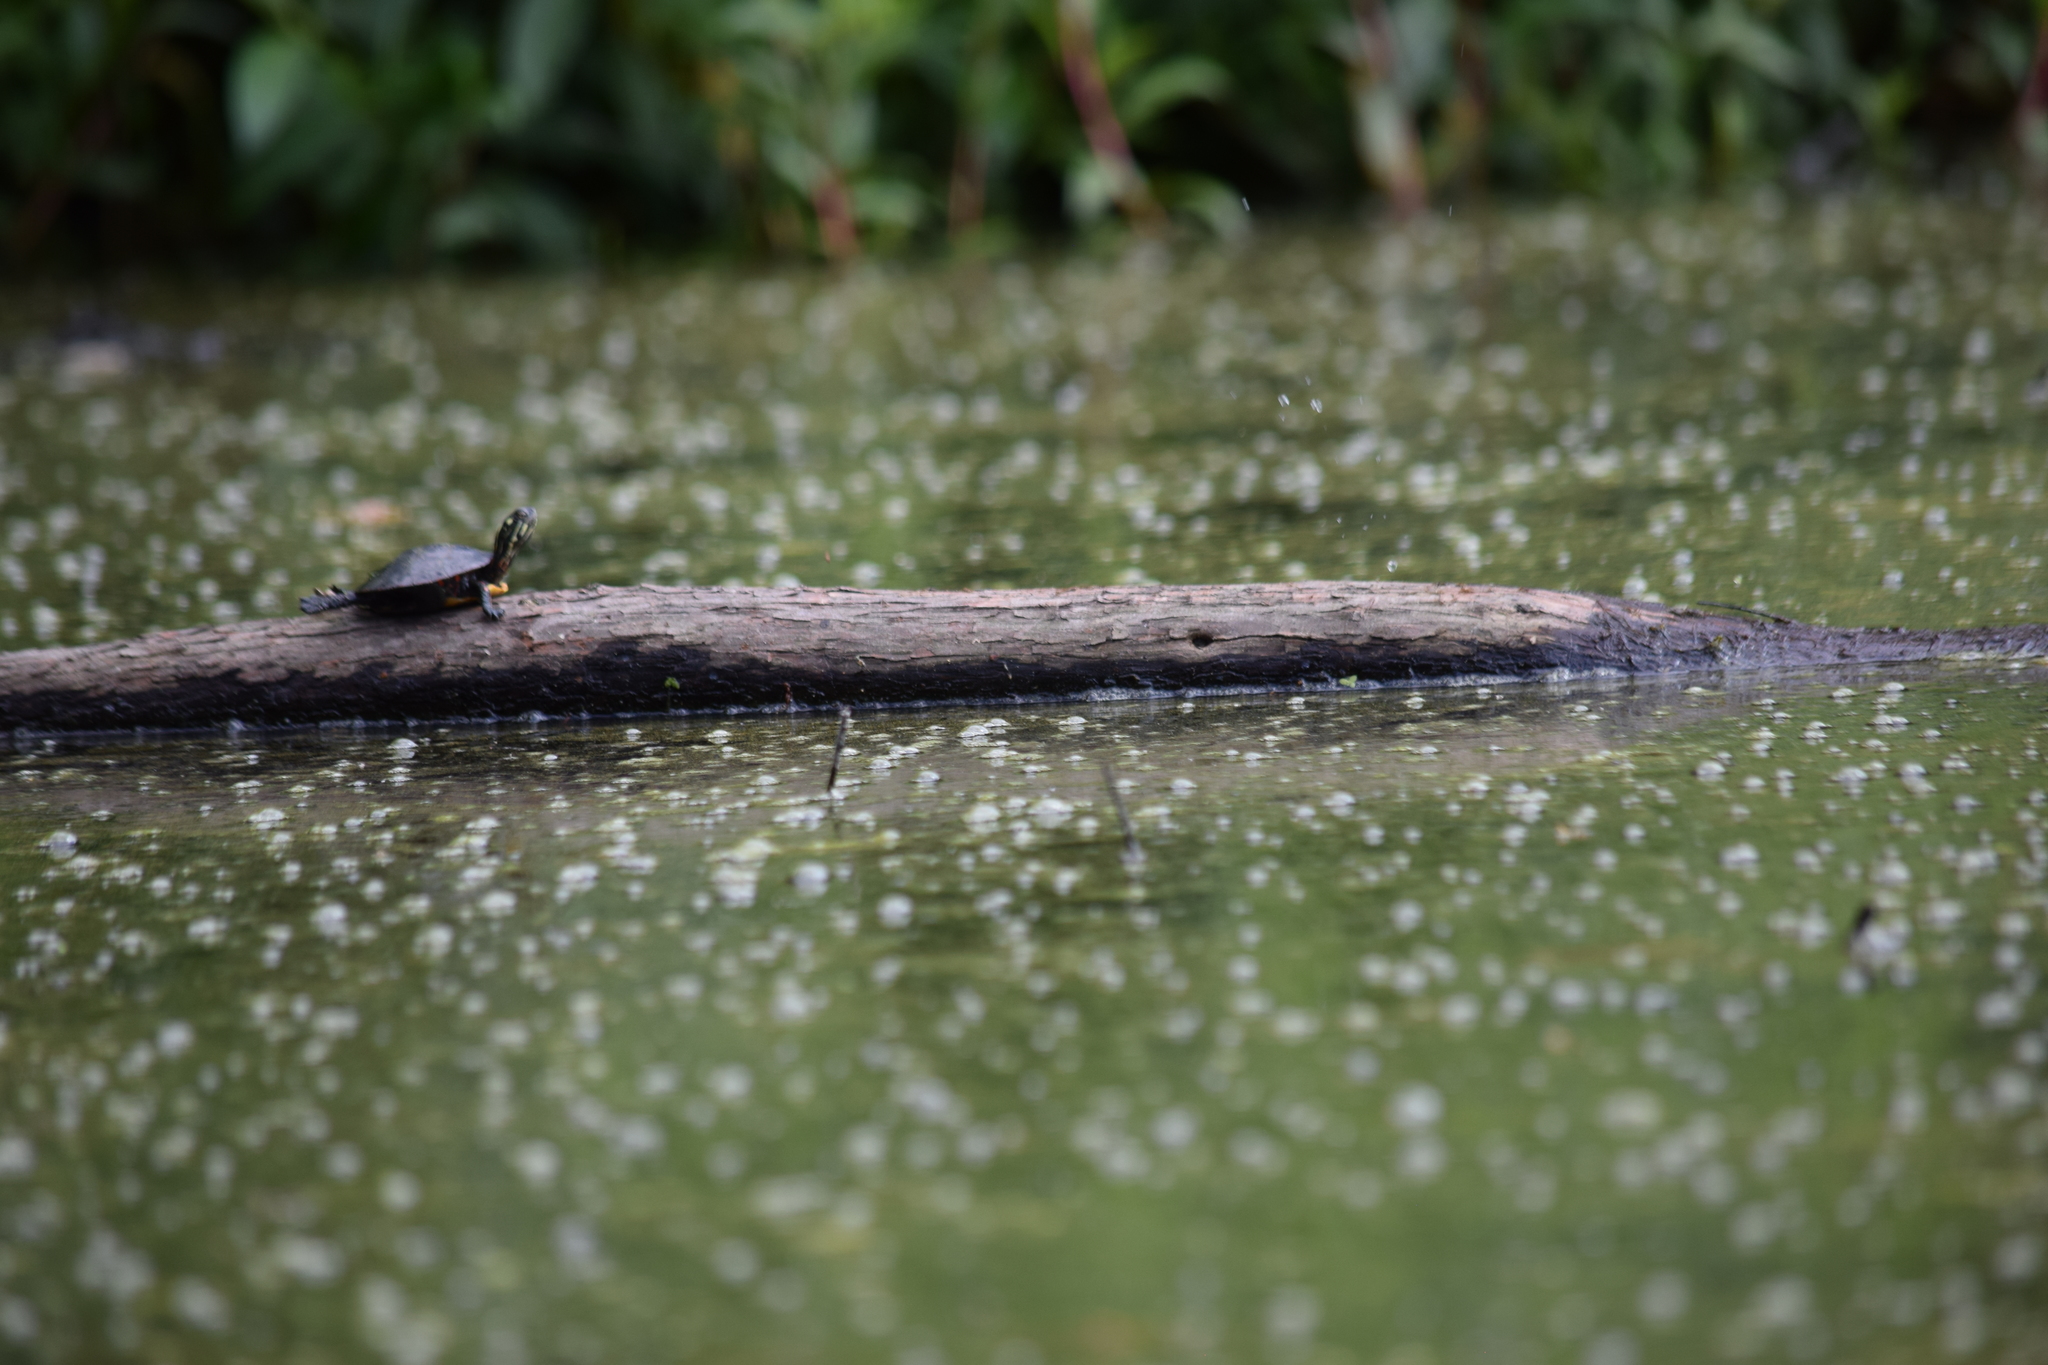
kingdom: Animalia
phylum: Chordata
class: Testudines
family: Emydidae
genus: Chrysemys
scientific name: Chrysemys picta
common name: Painted turtle
